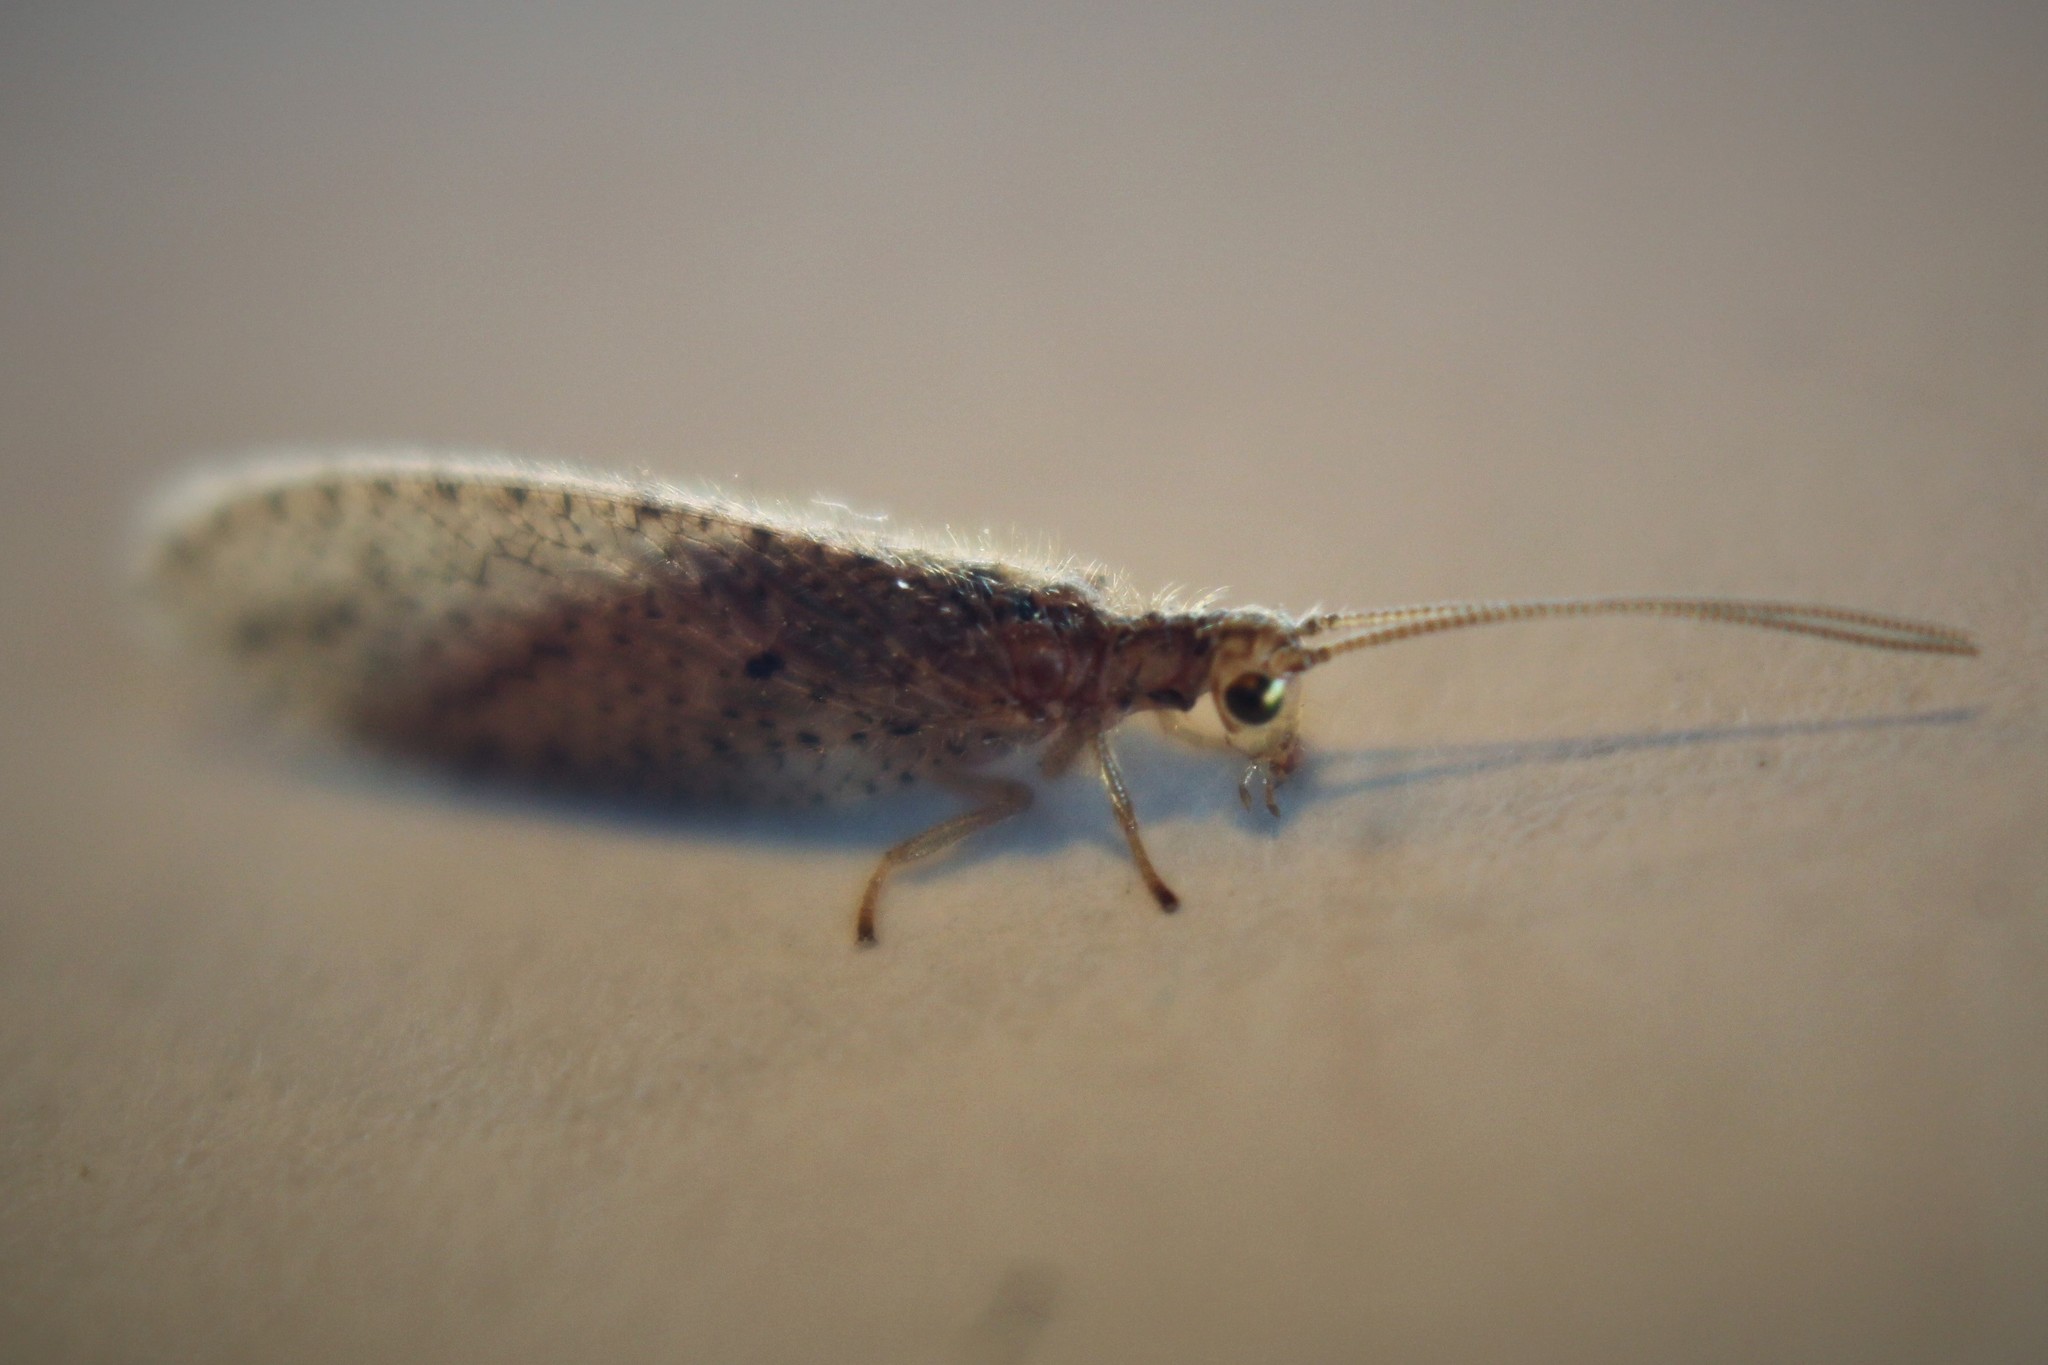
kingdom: Animalia
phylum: Arthropoda
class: Insecta
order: Neuroptera
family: Hemerobiidae
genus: Micromus
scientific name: Micromus tasmaniae
